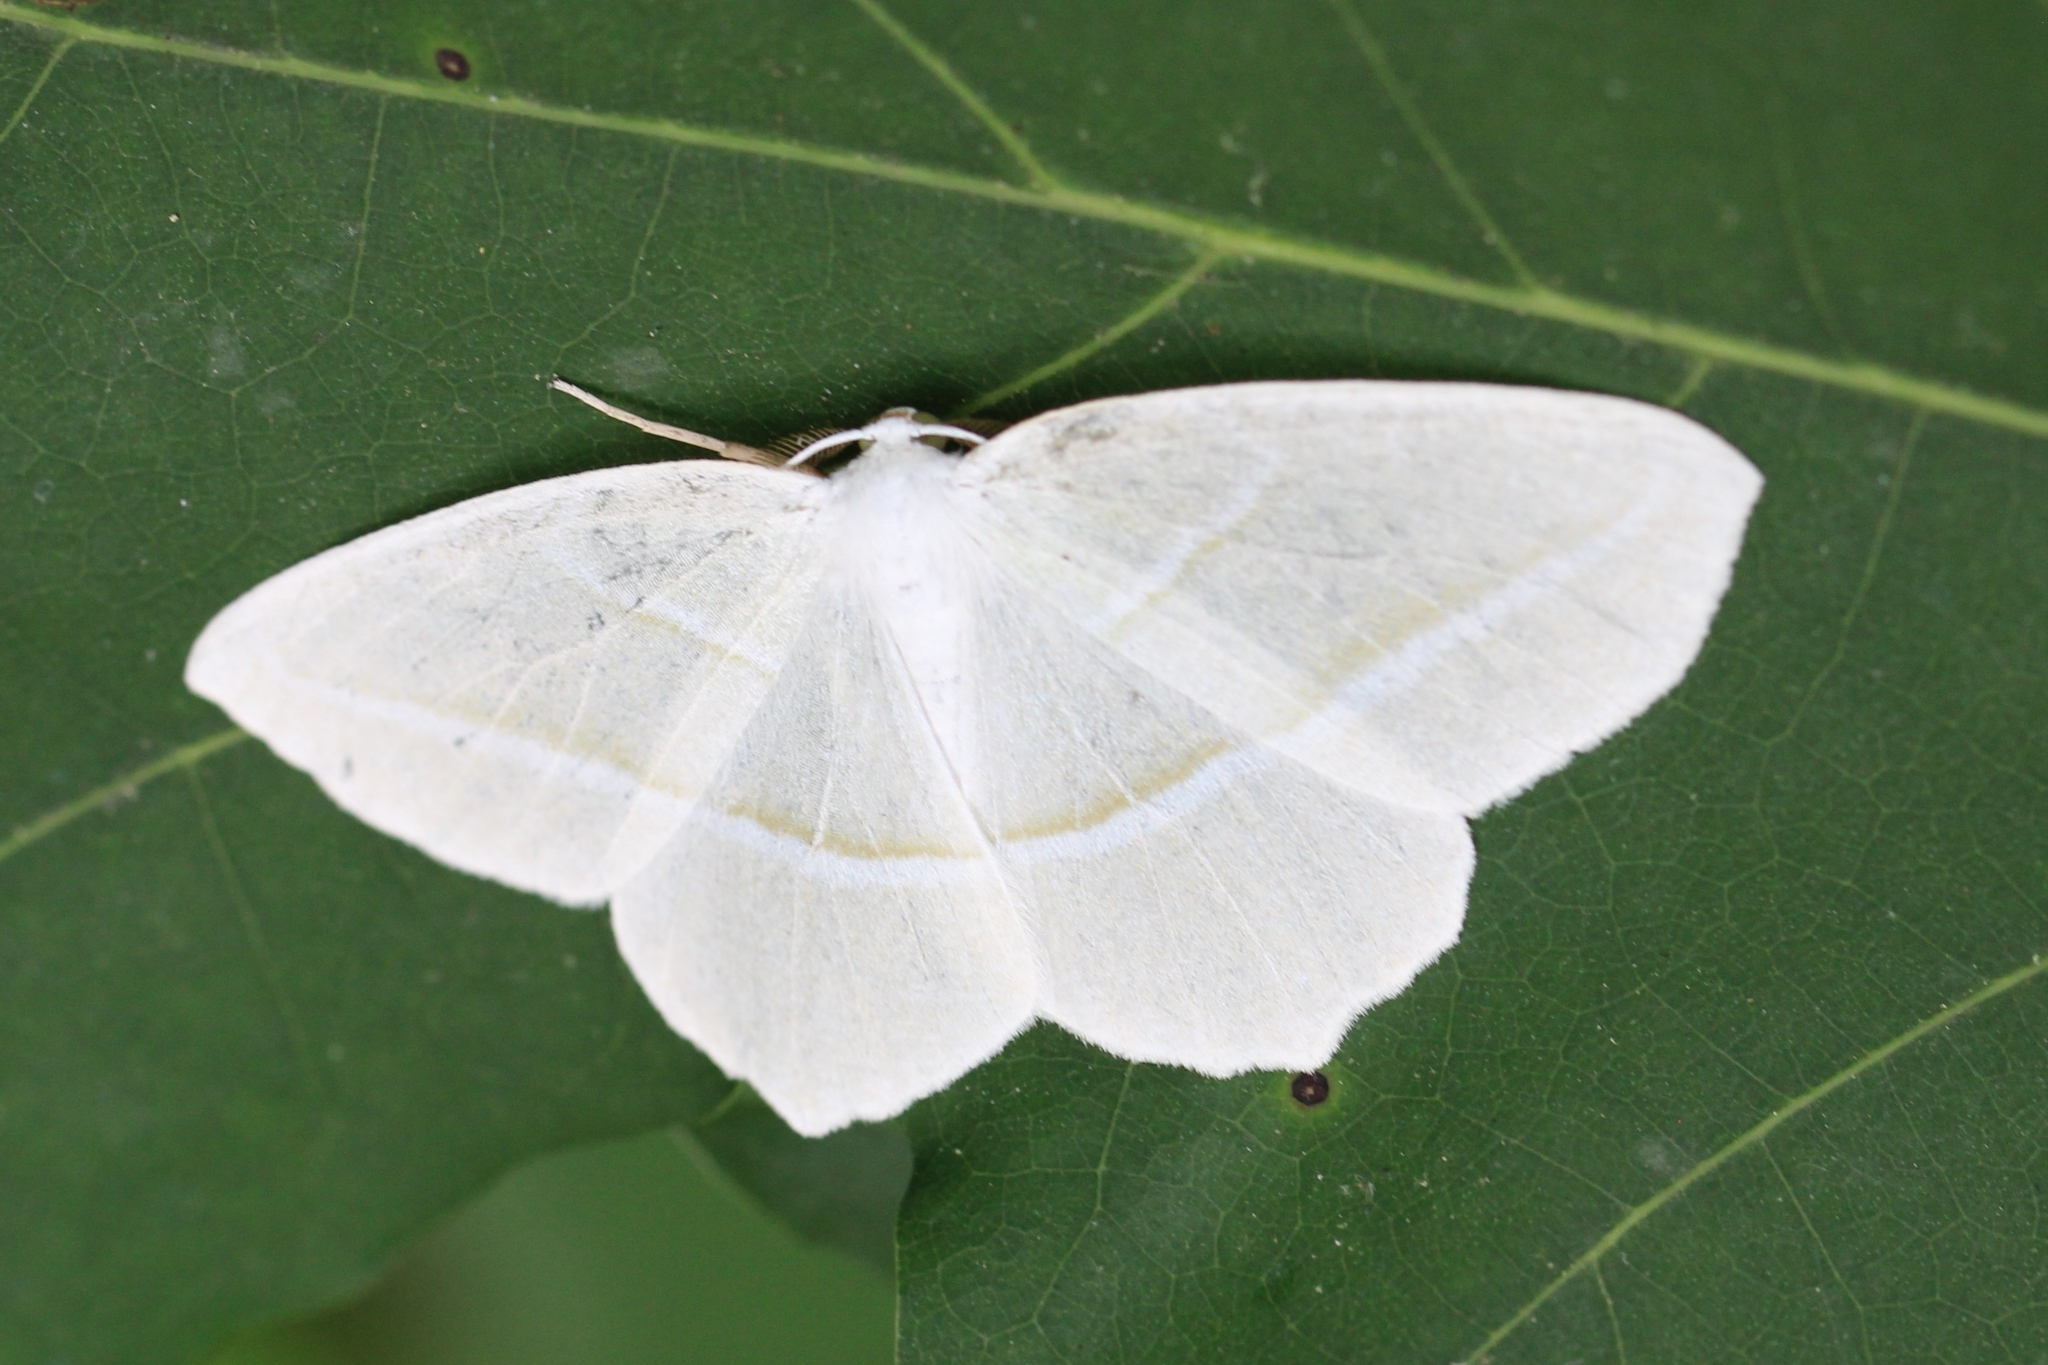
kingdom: Animalia
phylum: Arthropoda
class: Insecta
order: Lepidoptera
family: Geometridae
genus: Campaea
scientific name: Campaea perlata
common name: Fringed looper
